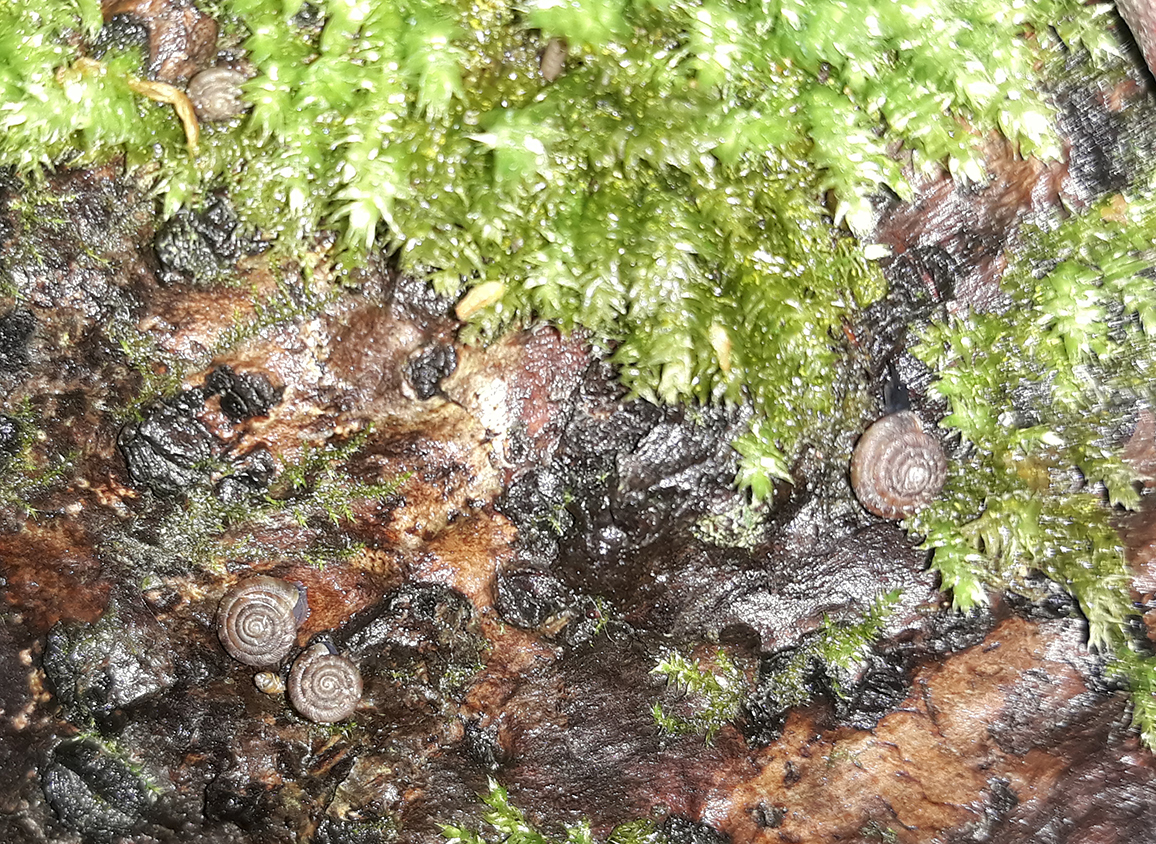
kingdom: Animalia
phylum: Mollusca
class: Gastropoda
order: Stylommatophora
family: Discidae
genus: Discus
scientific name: Discus rotundatus
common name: Rounded snail
